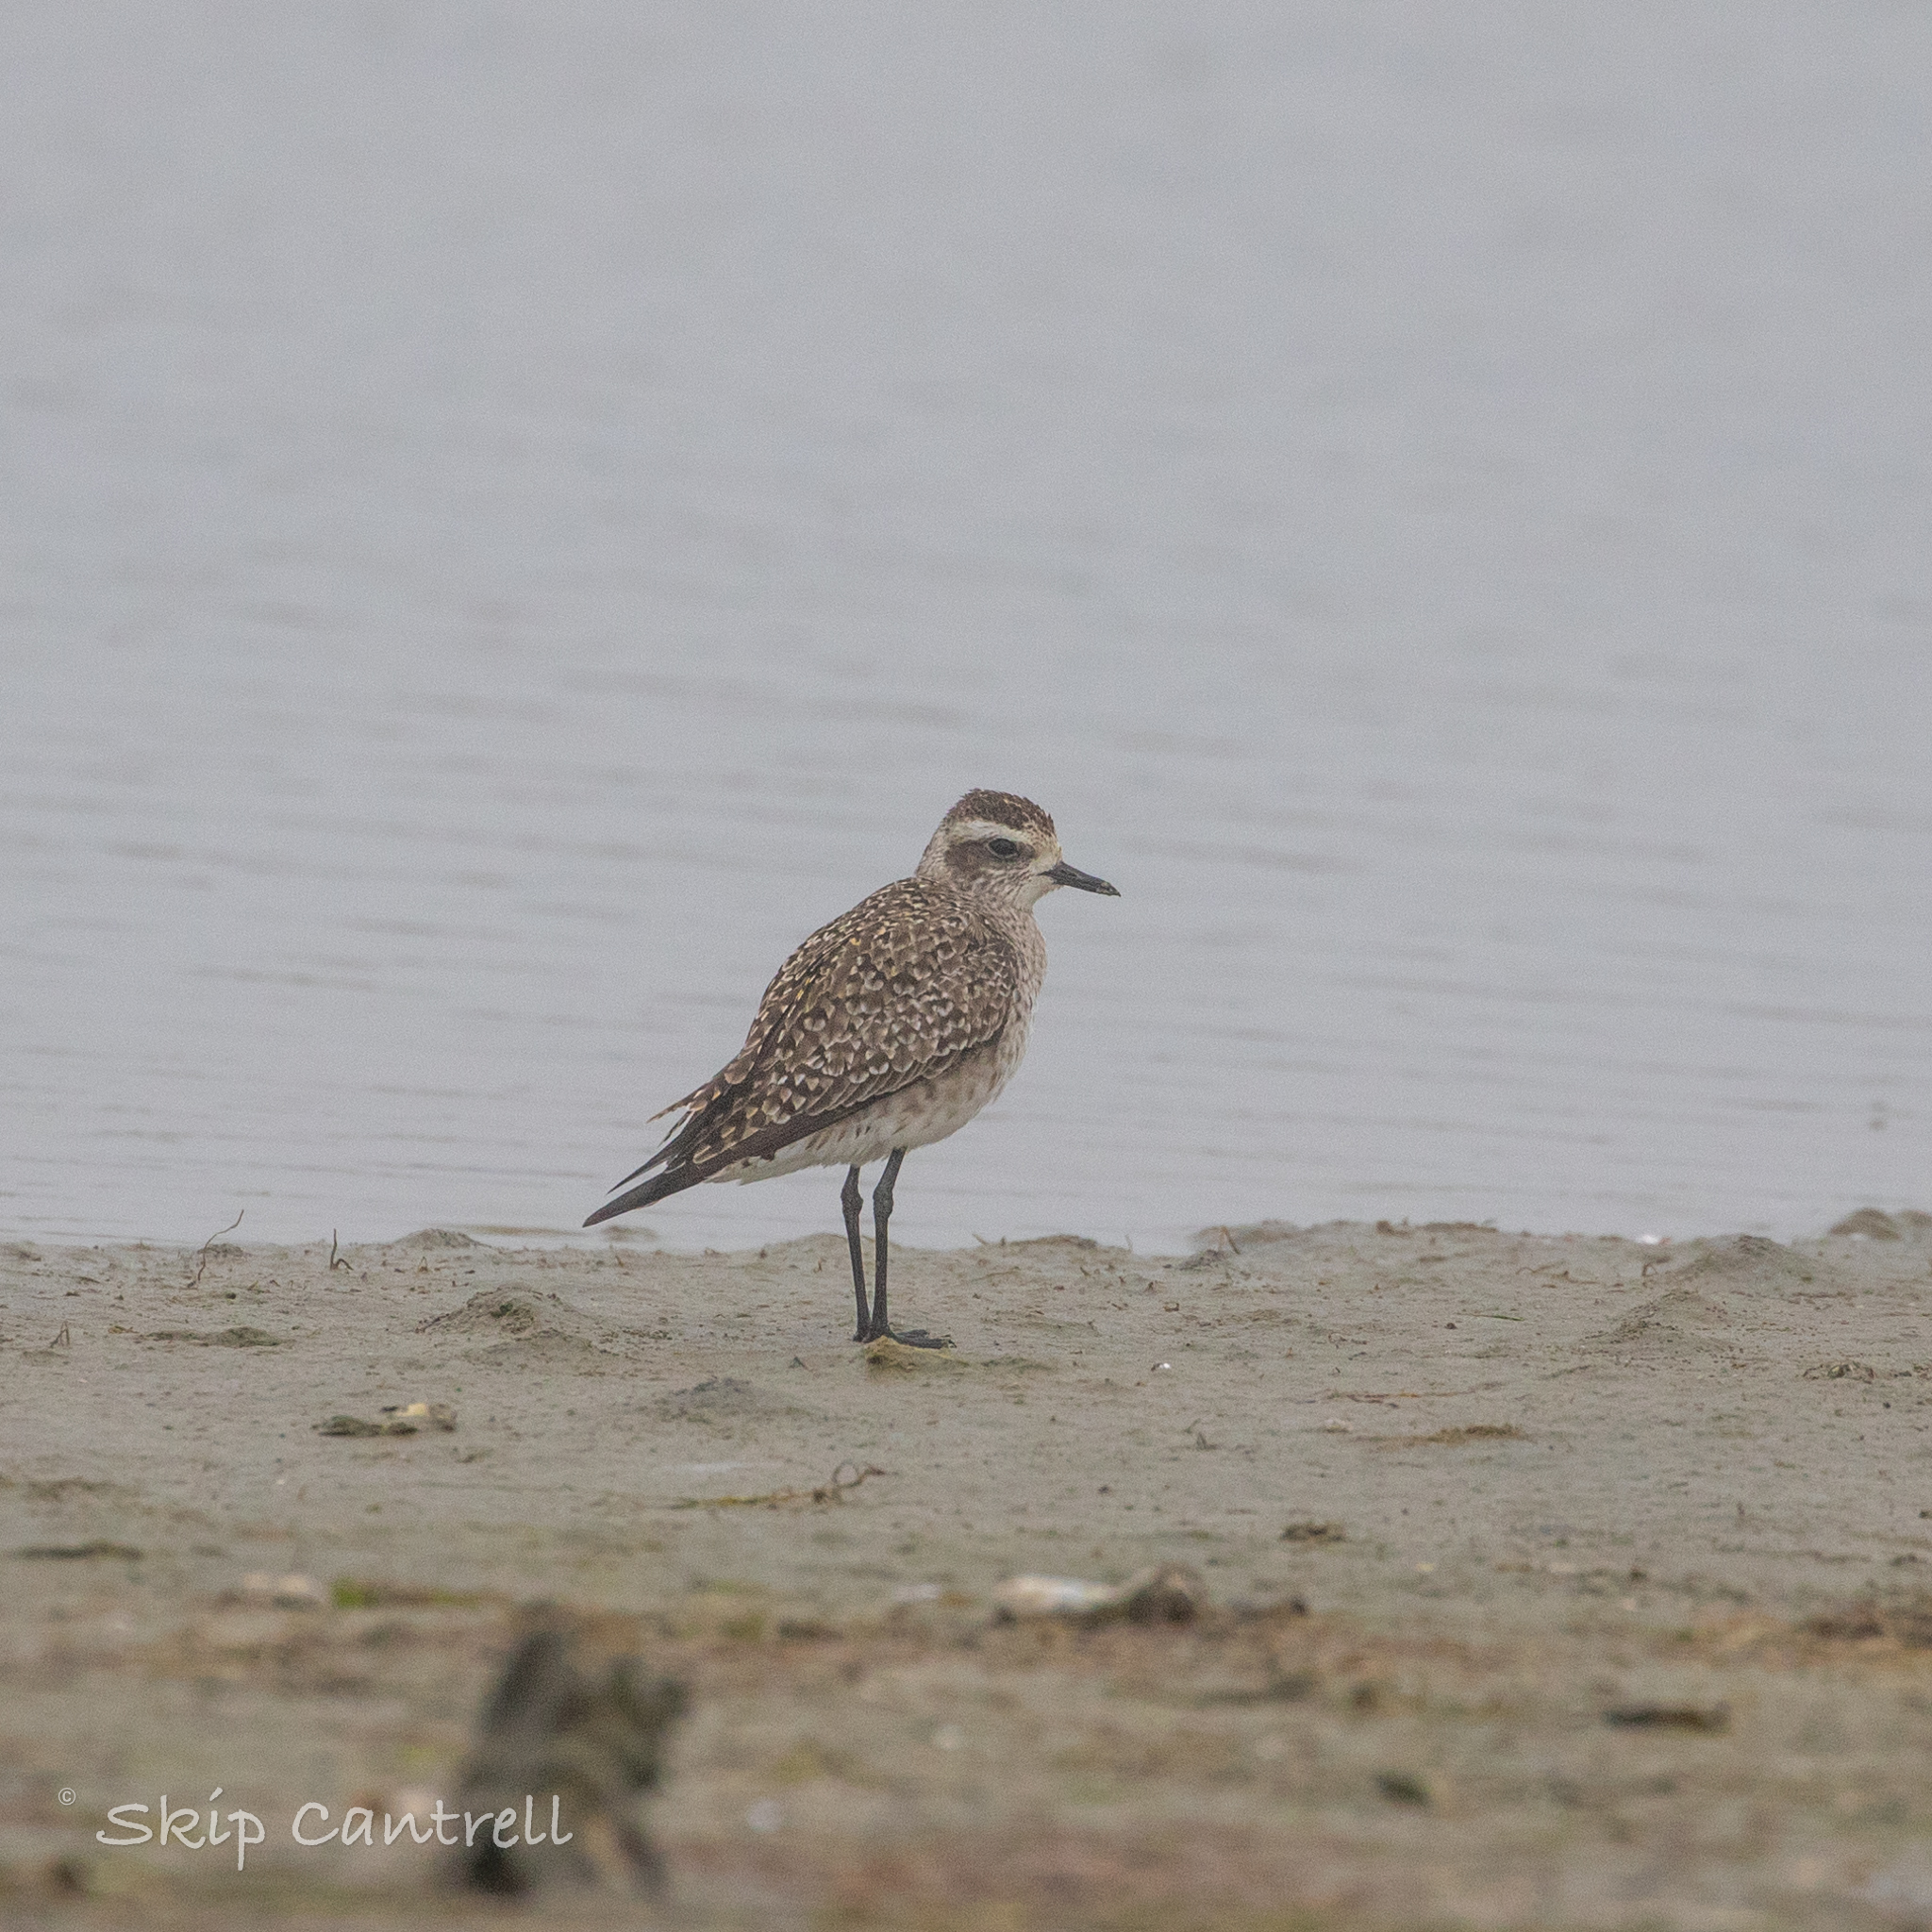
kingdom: Animalia
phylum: Chordata
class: Aves
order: Charadriiformes
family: Charadriidae
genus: Pluvialis
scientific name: Pluvialis dominica
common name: American golden plover
